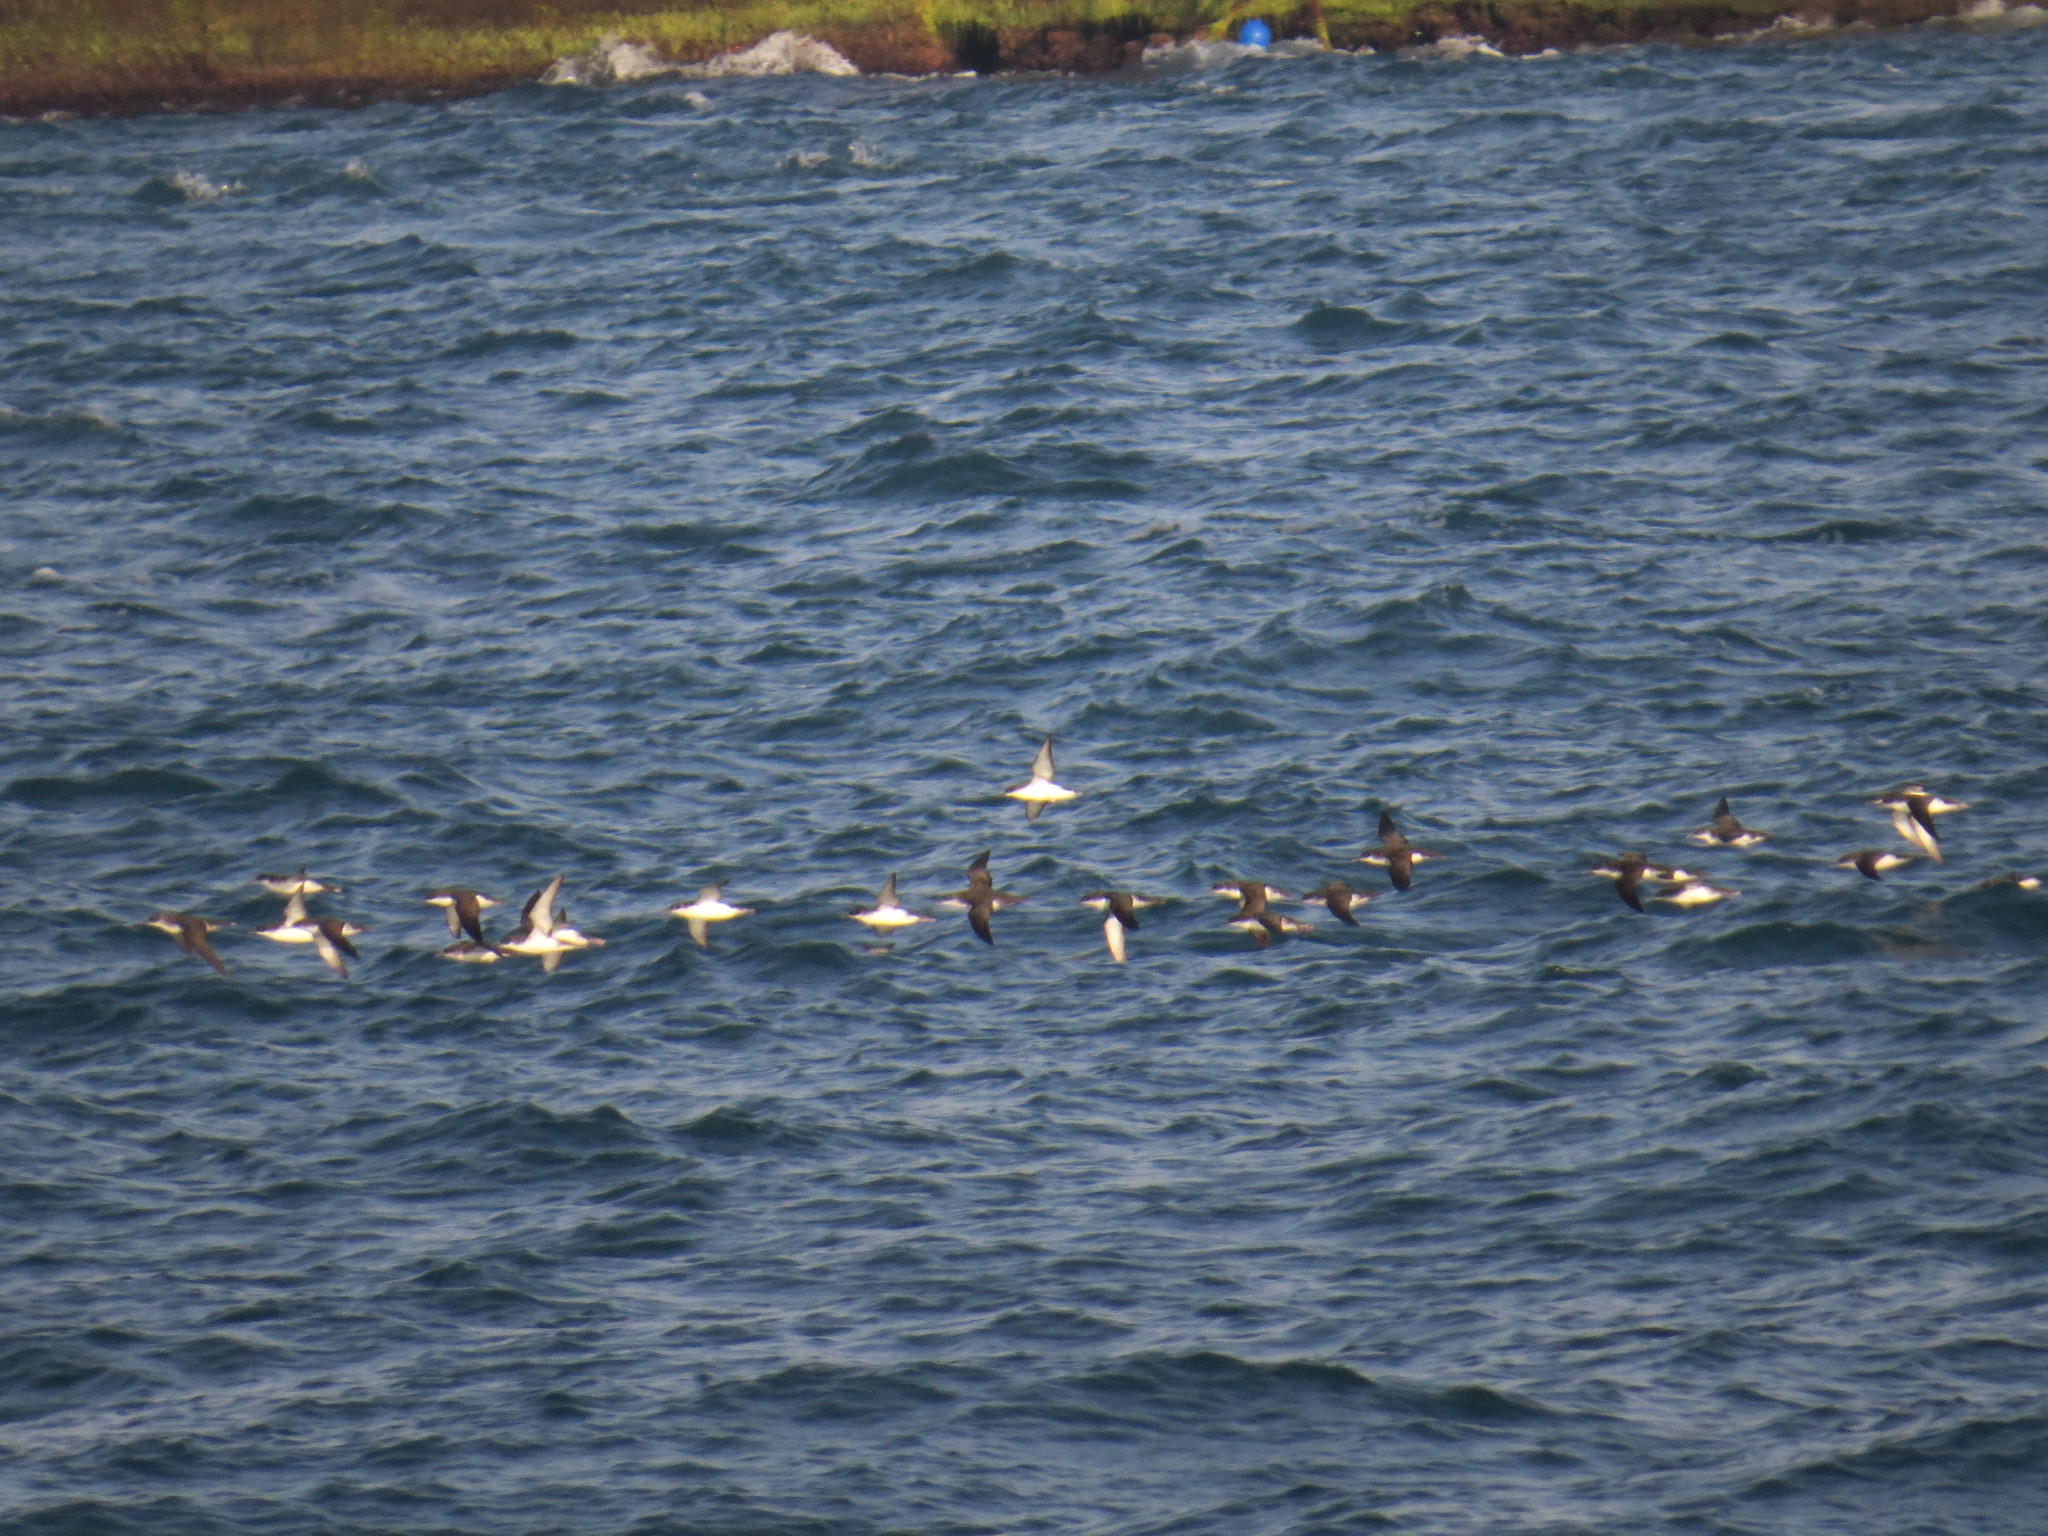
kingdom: Animalia
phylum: Chordata
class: Aves
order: Procellariiformes
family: Procellariidae
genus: Puffinus
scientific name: Puffinus yelkouan
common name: Yelkouan shearwater
